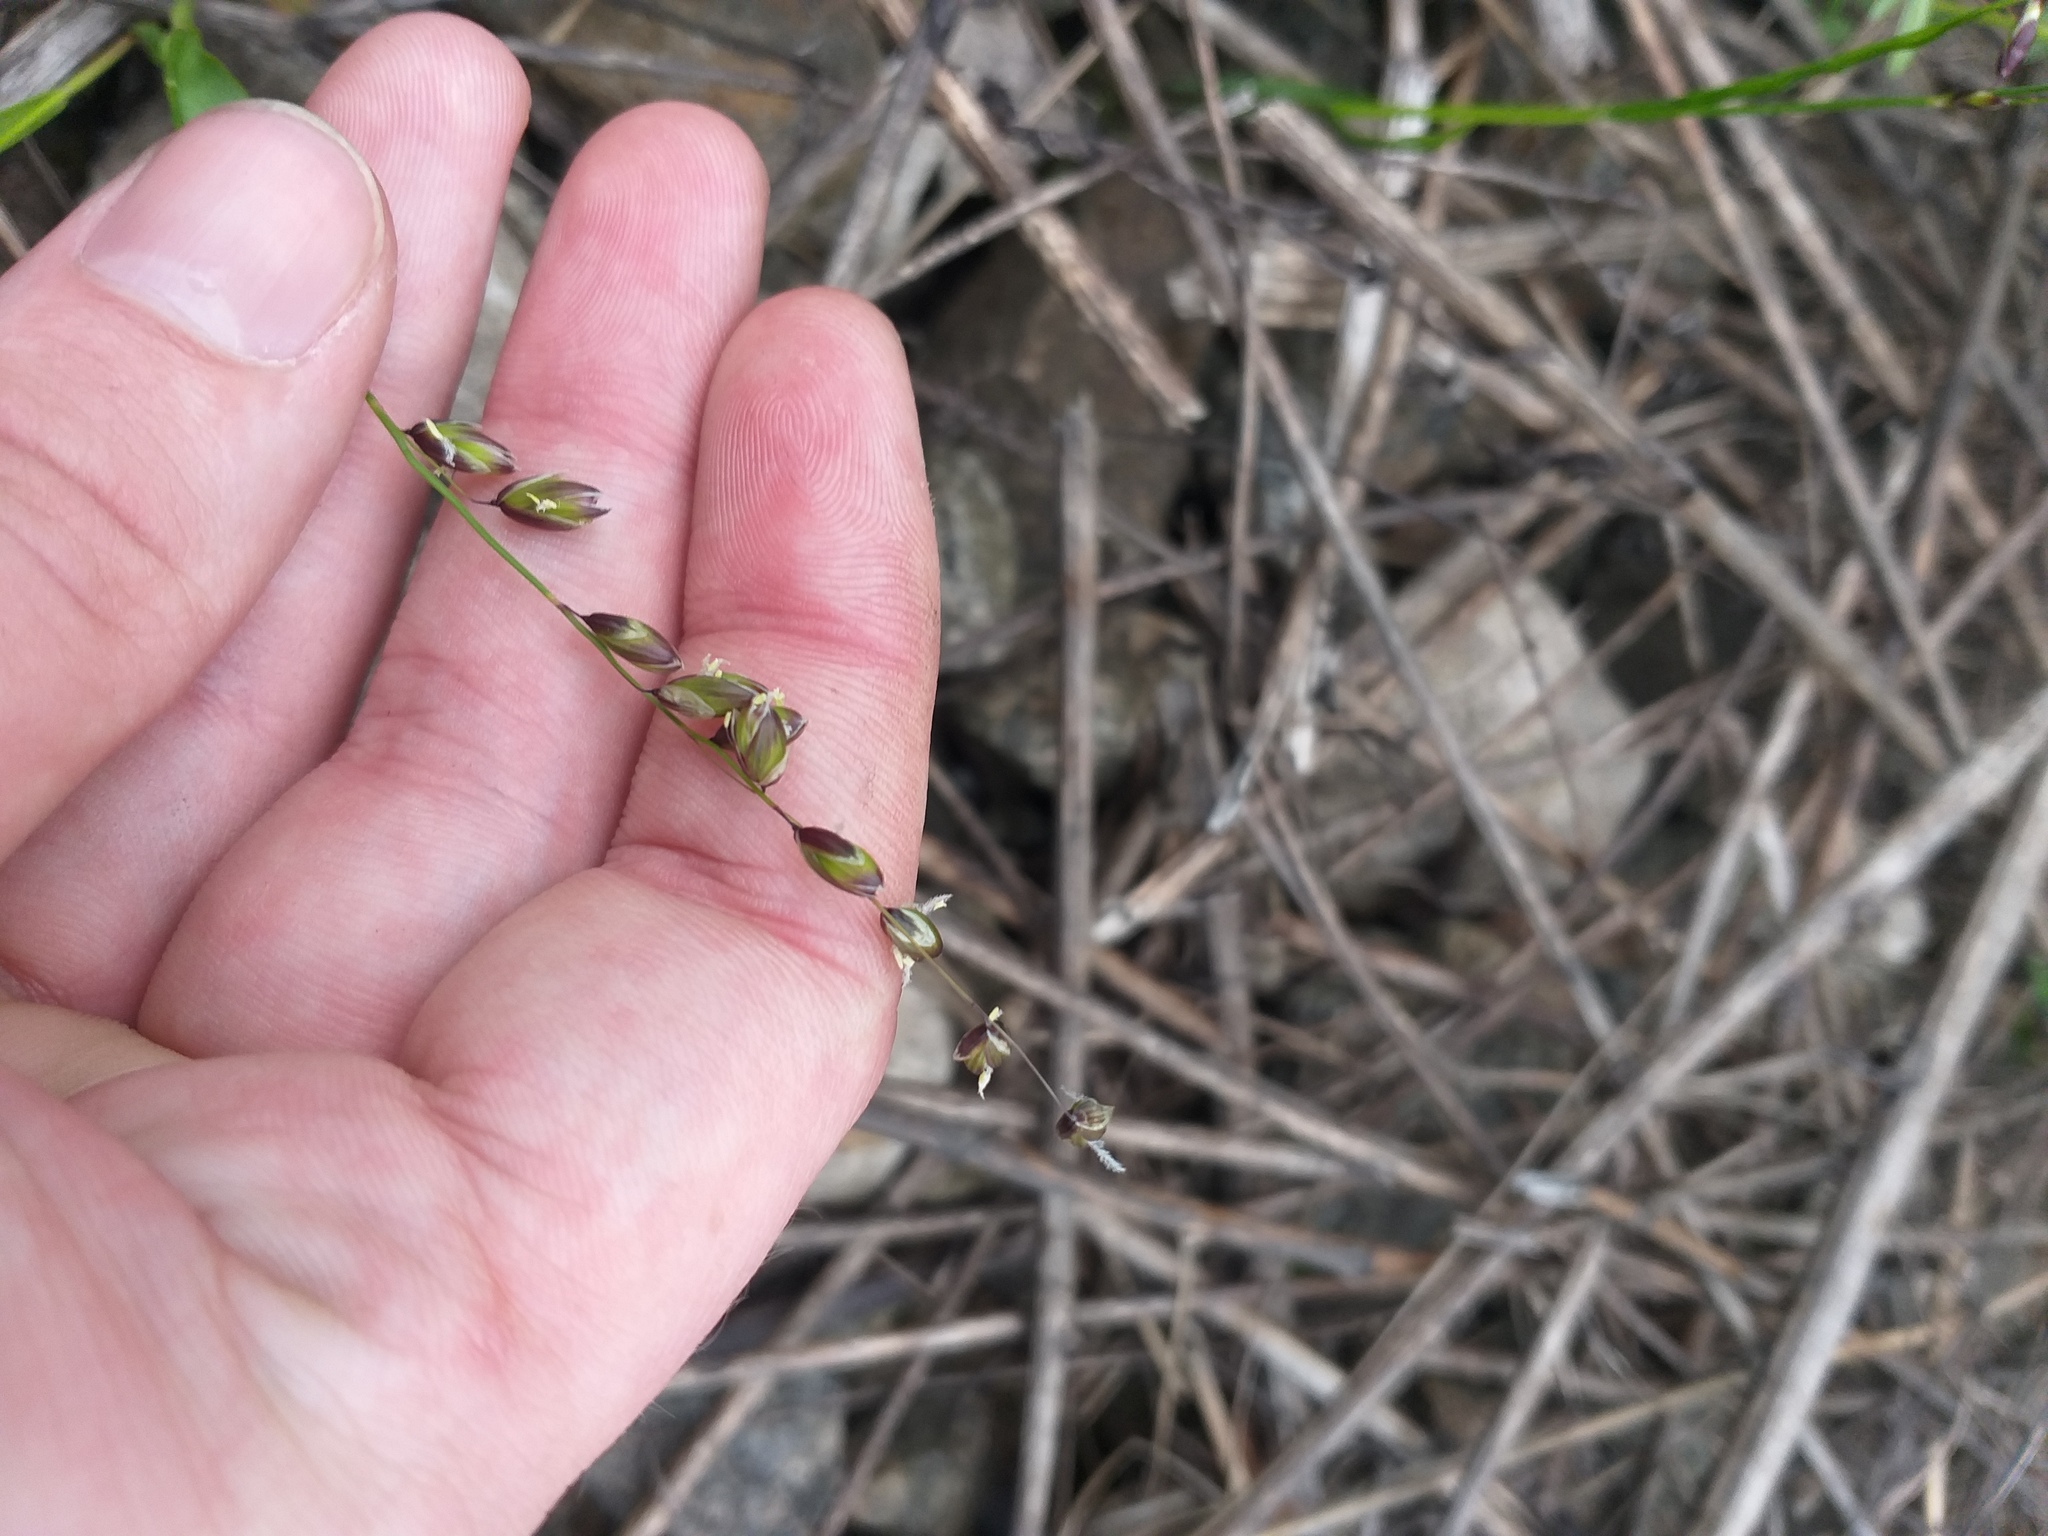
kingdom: Plantae
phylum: Tracheophyta
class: Liliopsida
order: Poales
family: Poaceae
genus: Melica
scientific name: Melica nutans
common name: Mountain melick
